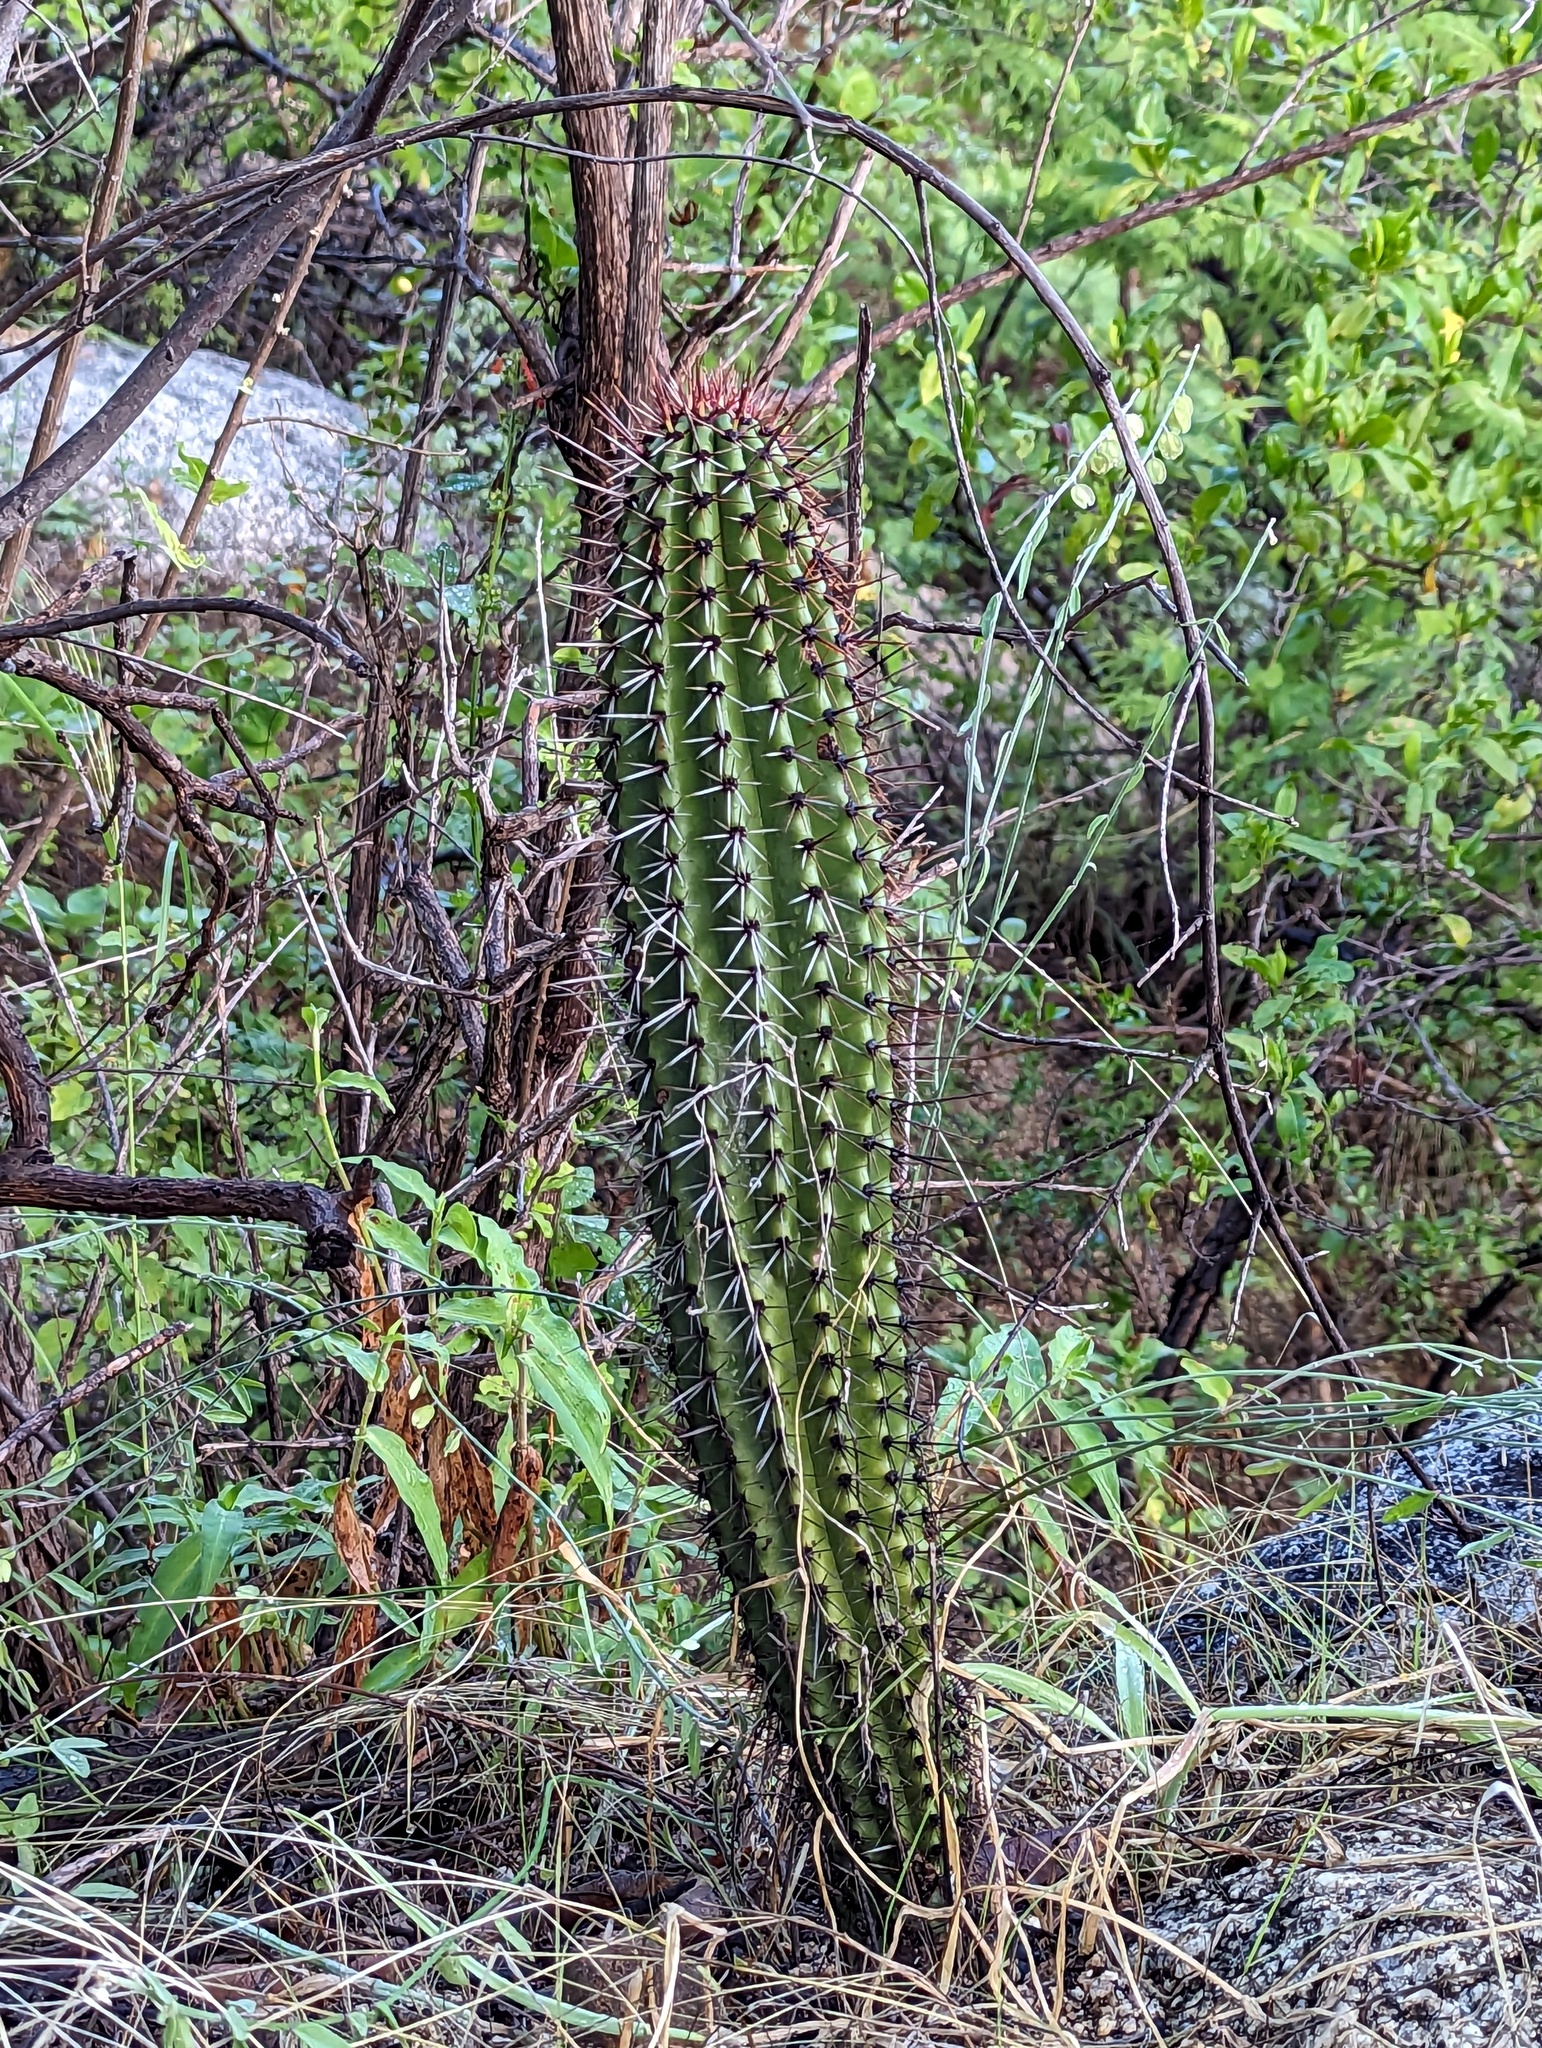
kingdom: Plantae
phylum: Tracheophyta
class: Magnoliopsida
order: Caryophyllales
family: Cactaceae
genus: Stenocereus
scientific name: Stenocereus thurberi
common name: Organ pipe cactus
